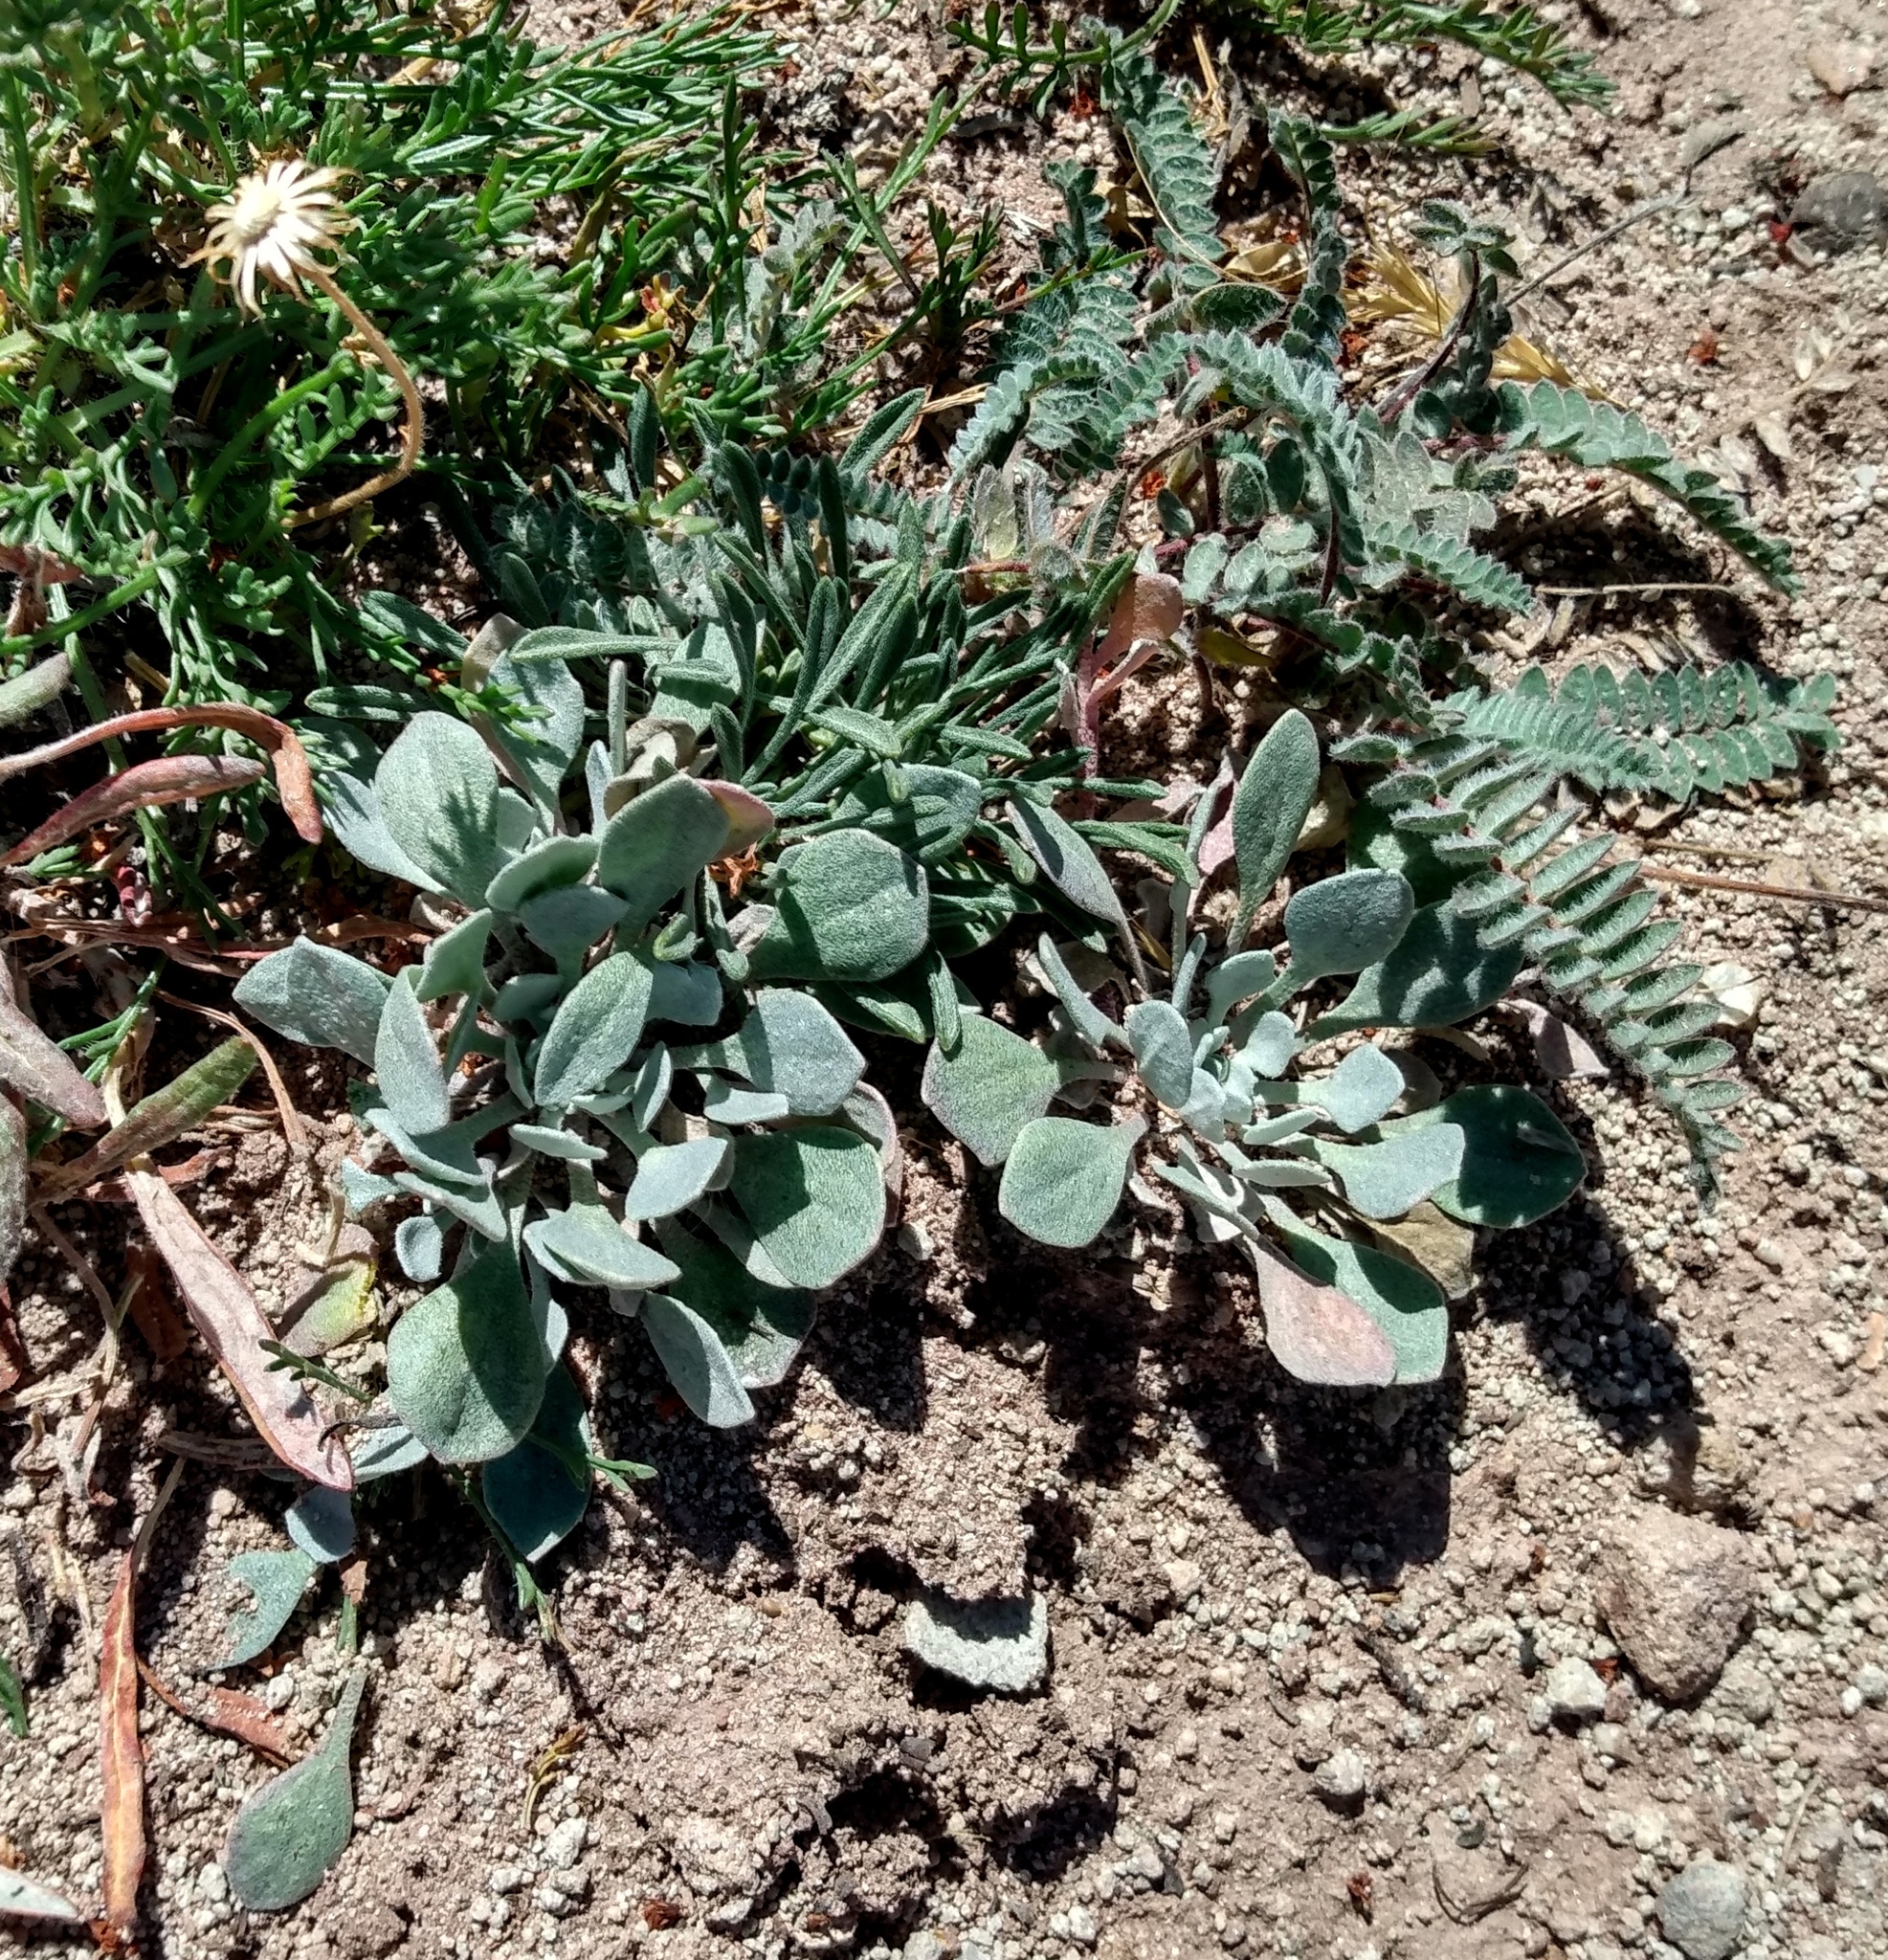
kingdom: Plantae
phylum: Tracheophyta
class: Magnoliopsida
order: Brassicales
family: Brassicaceae
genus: Physaria
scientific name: Physaria alpina
